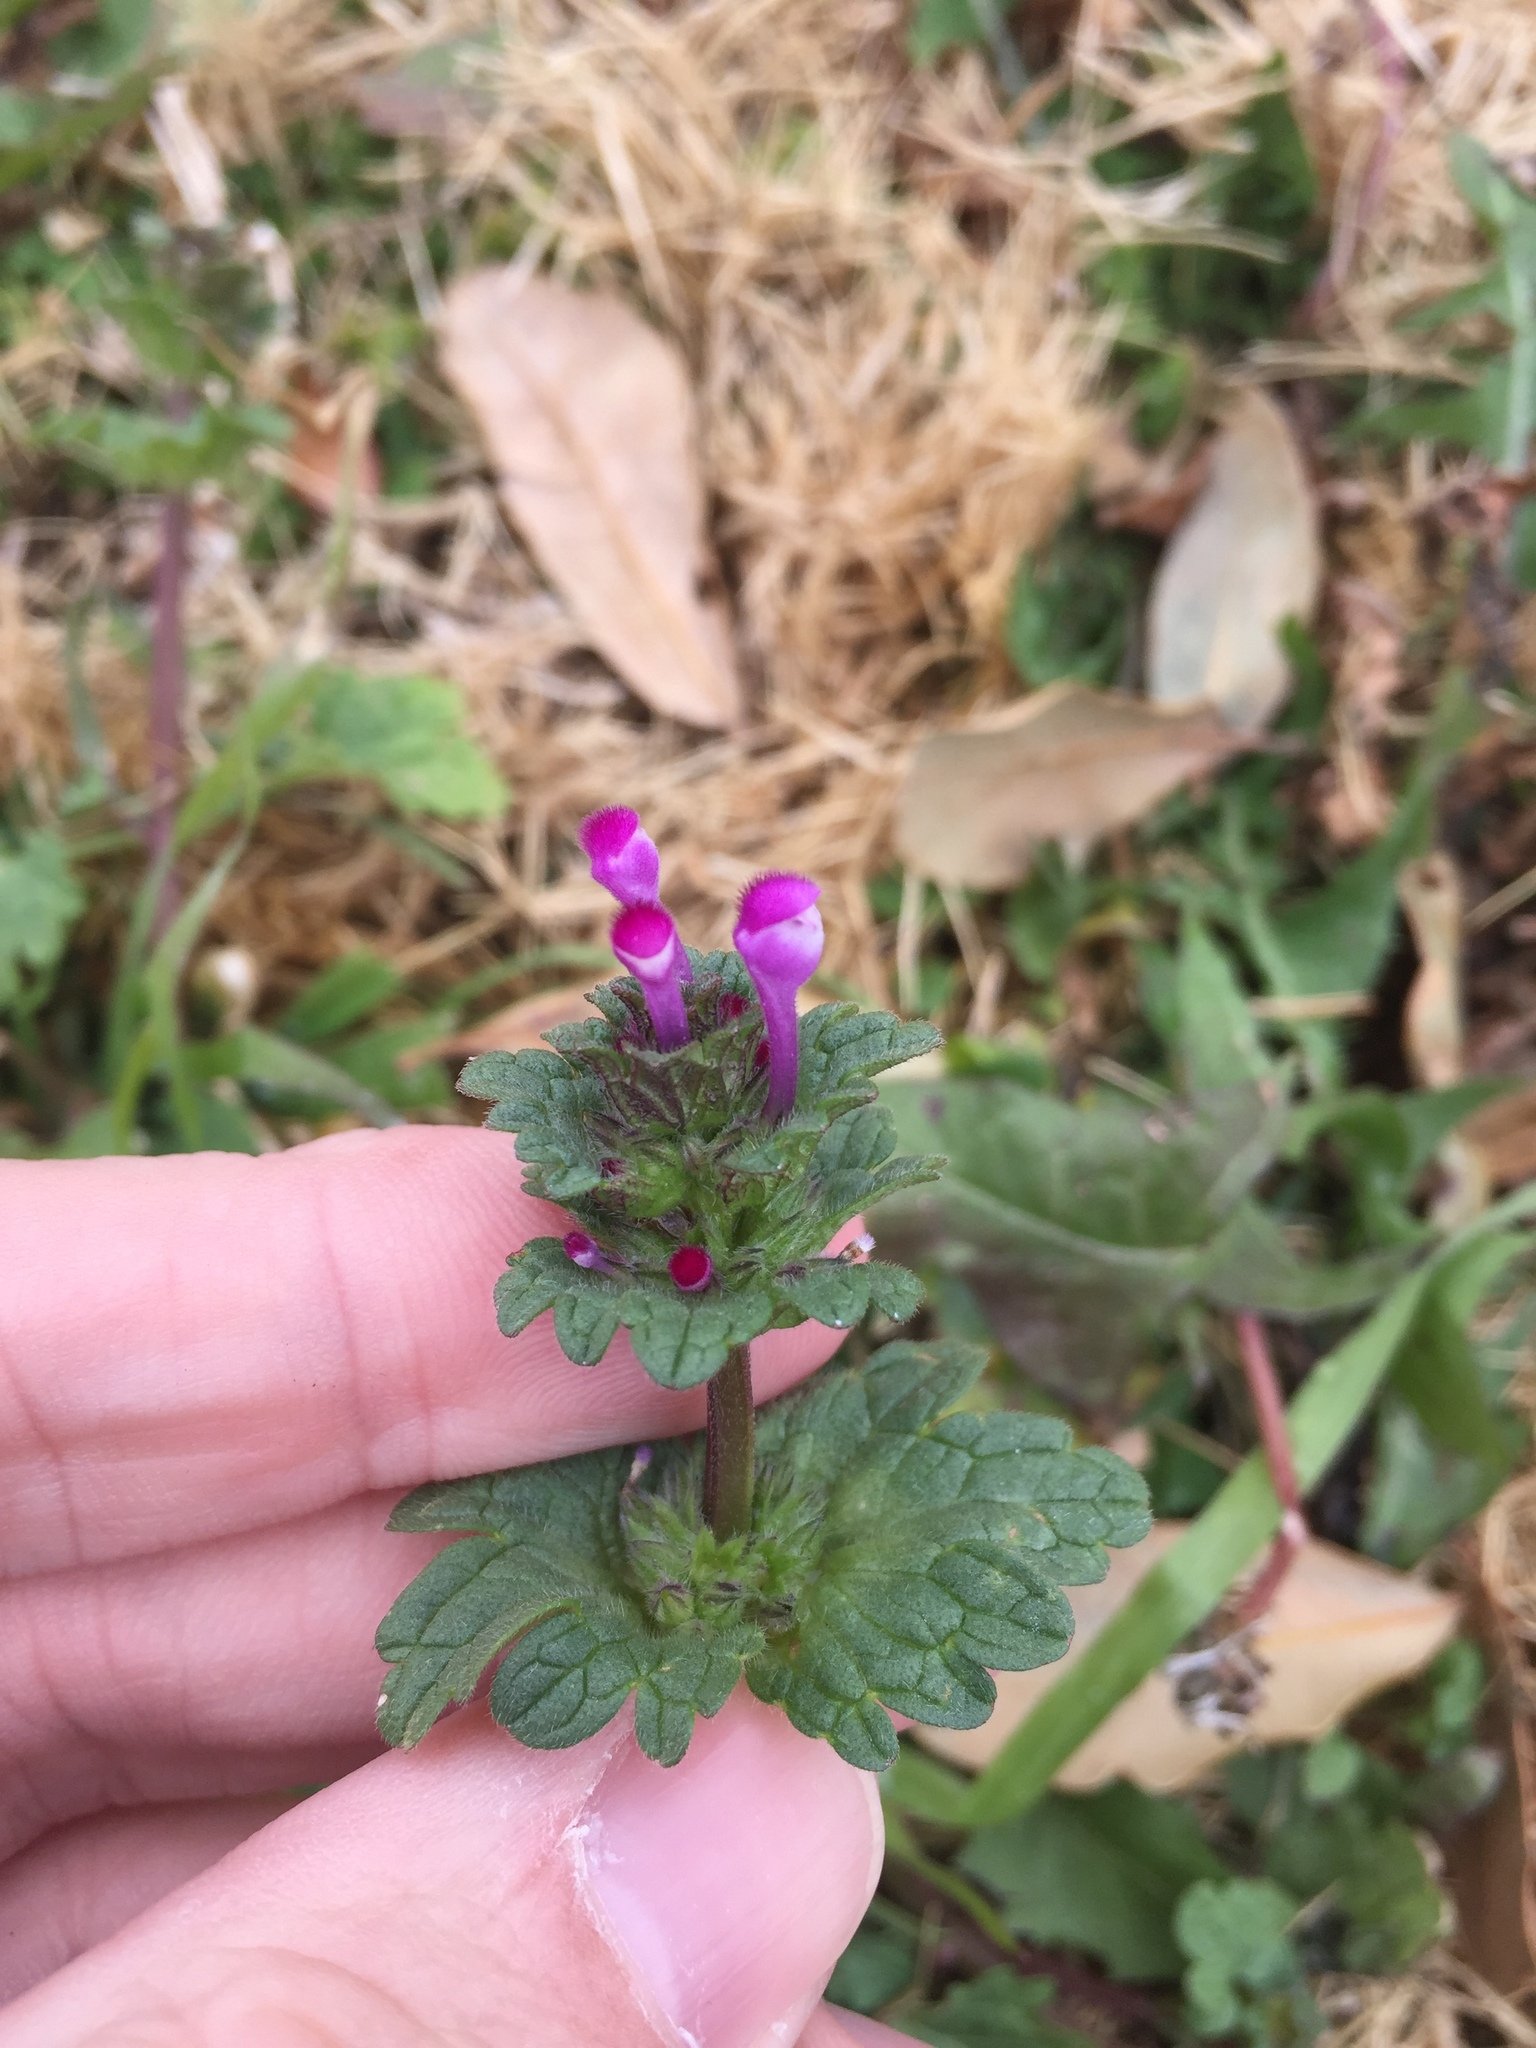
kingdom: Plantae
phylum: Tracheophyta
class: Magnoliopsida
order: Lamiales
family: Lamiaceae
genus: Lamium
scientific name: Lamium amplexicaule
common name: Henbit dead-nettle
